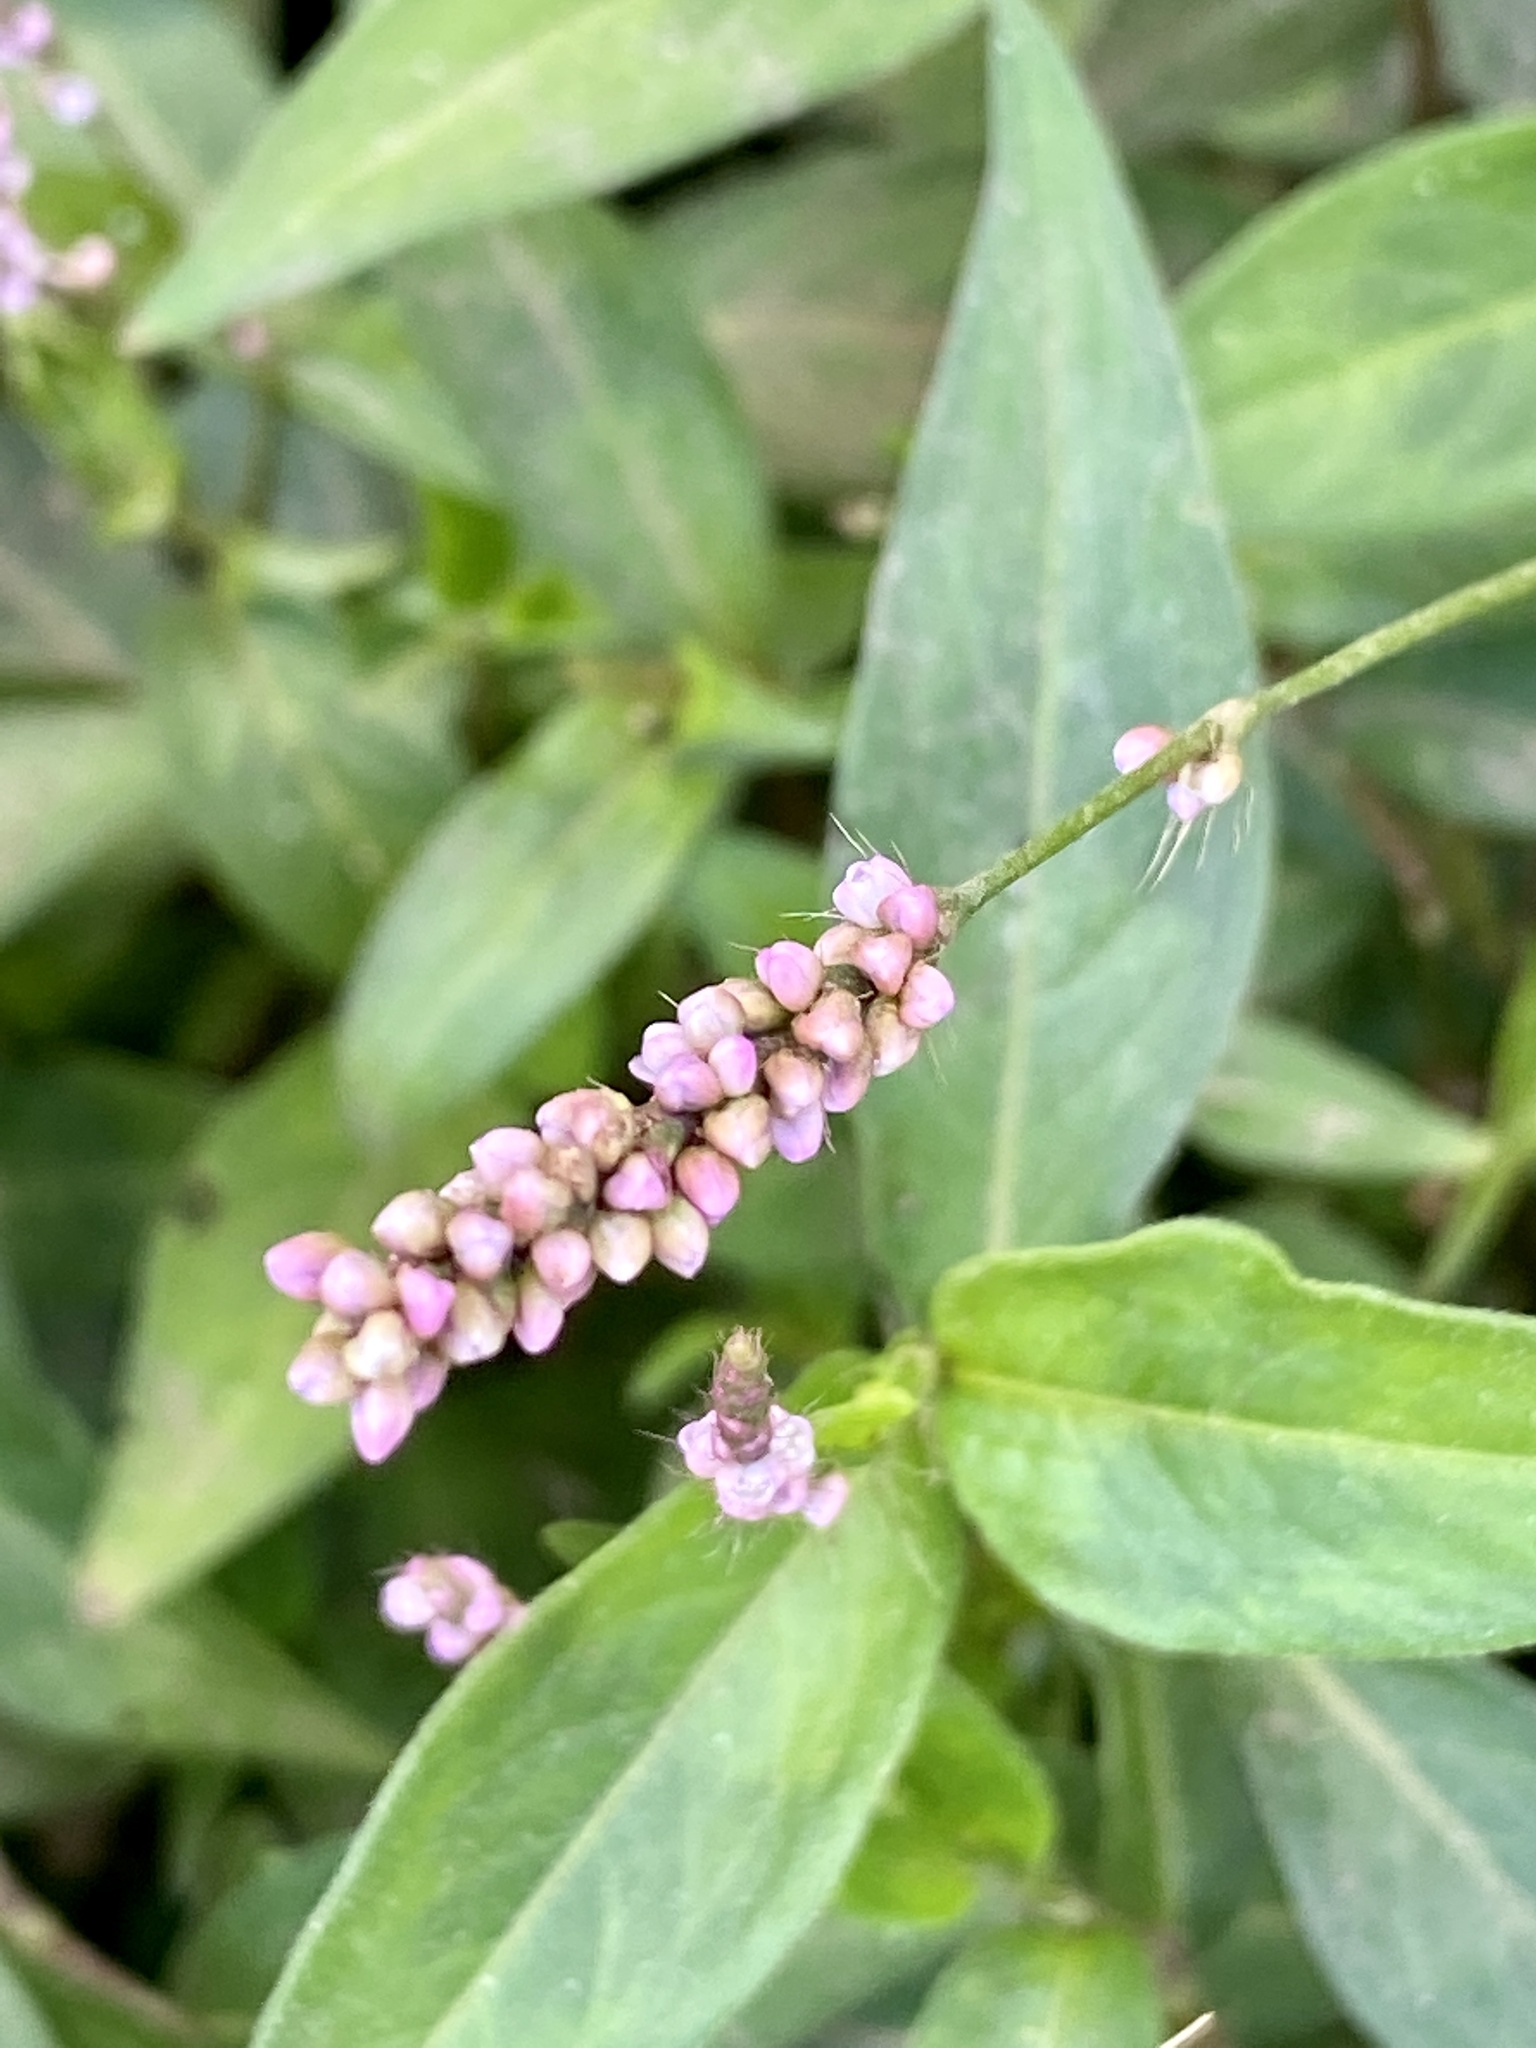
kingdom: Plantae
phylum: Tracheophyta
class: Magnoliopsida
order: Caryophyllales
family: Polygonaceae
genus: Persicaria
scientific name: Persicaria longiseta
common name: Bristly lady's-thumb
